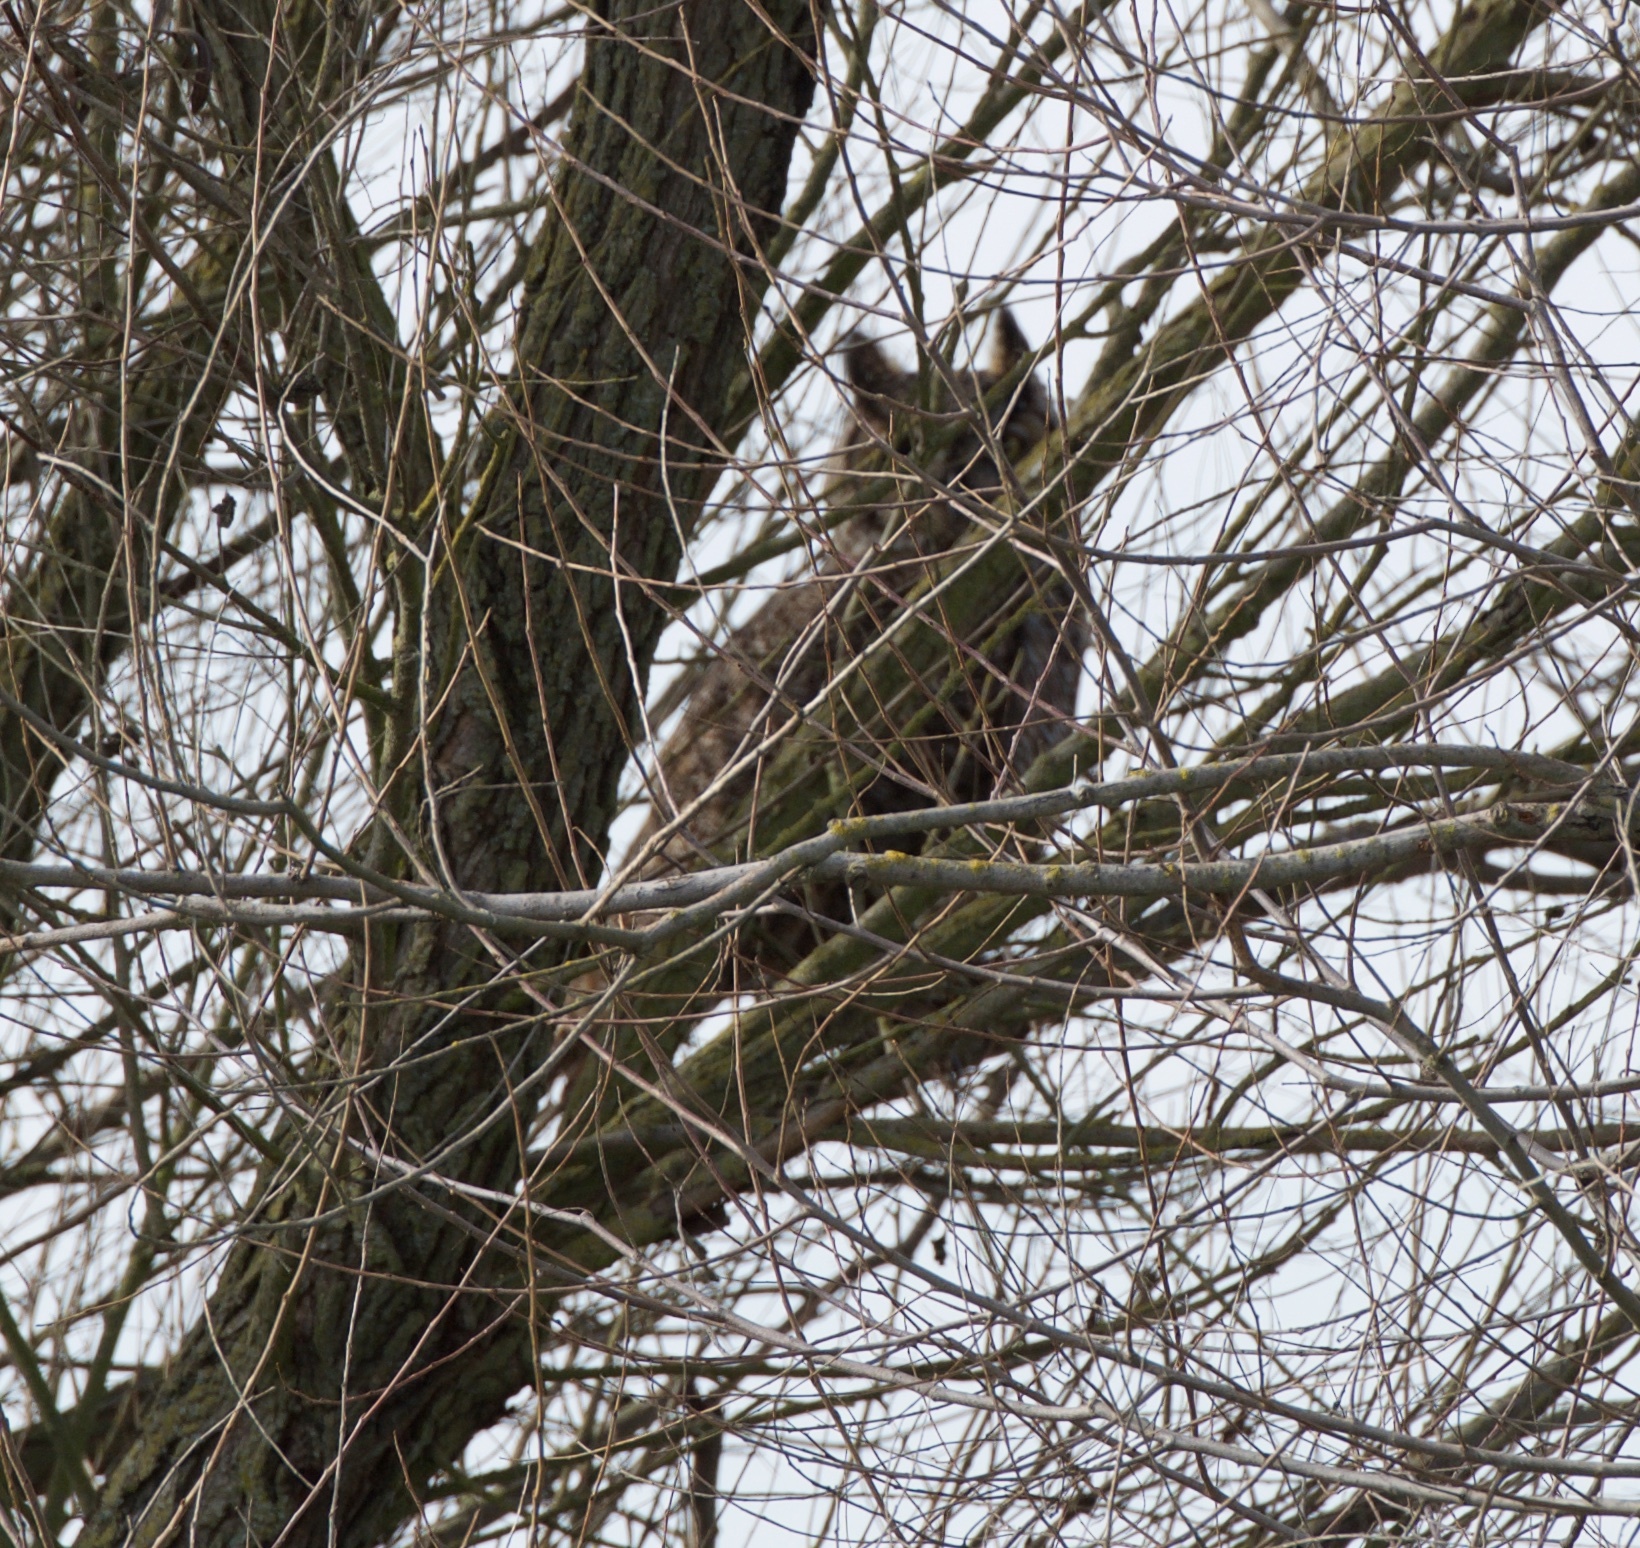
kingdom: Animalia
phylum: Chordata
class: Aves
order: Strigiformes
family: Strigidae
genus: Bubo
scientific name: Bubo virginianus
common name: Great horned owl
